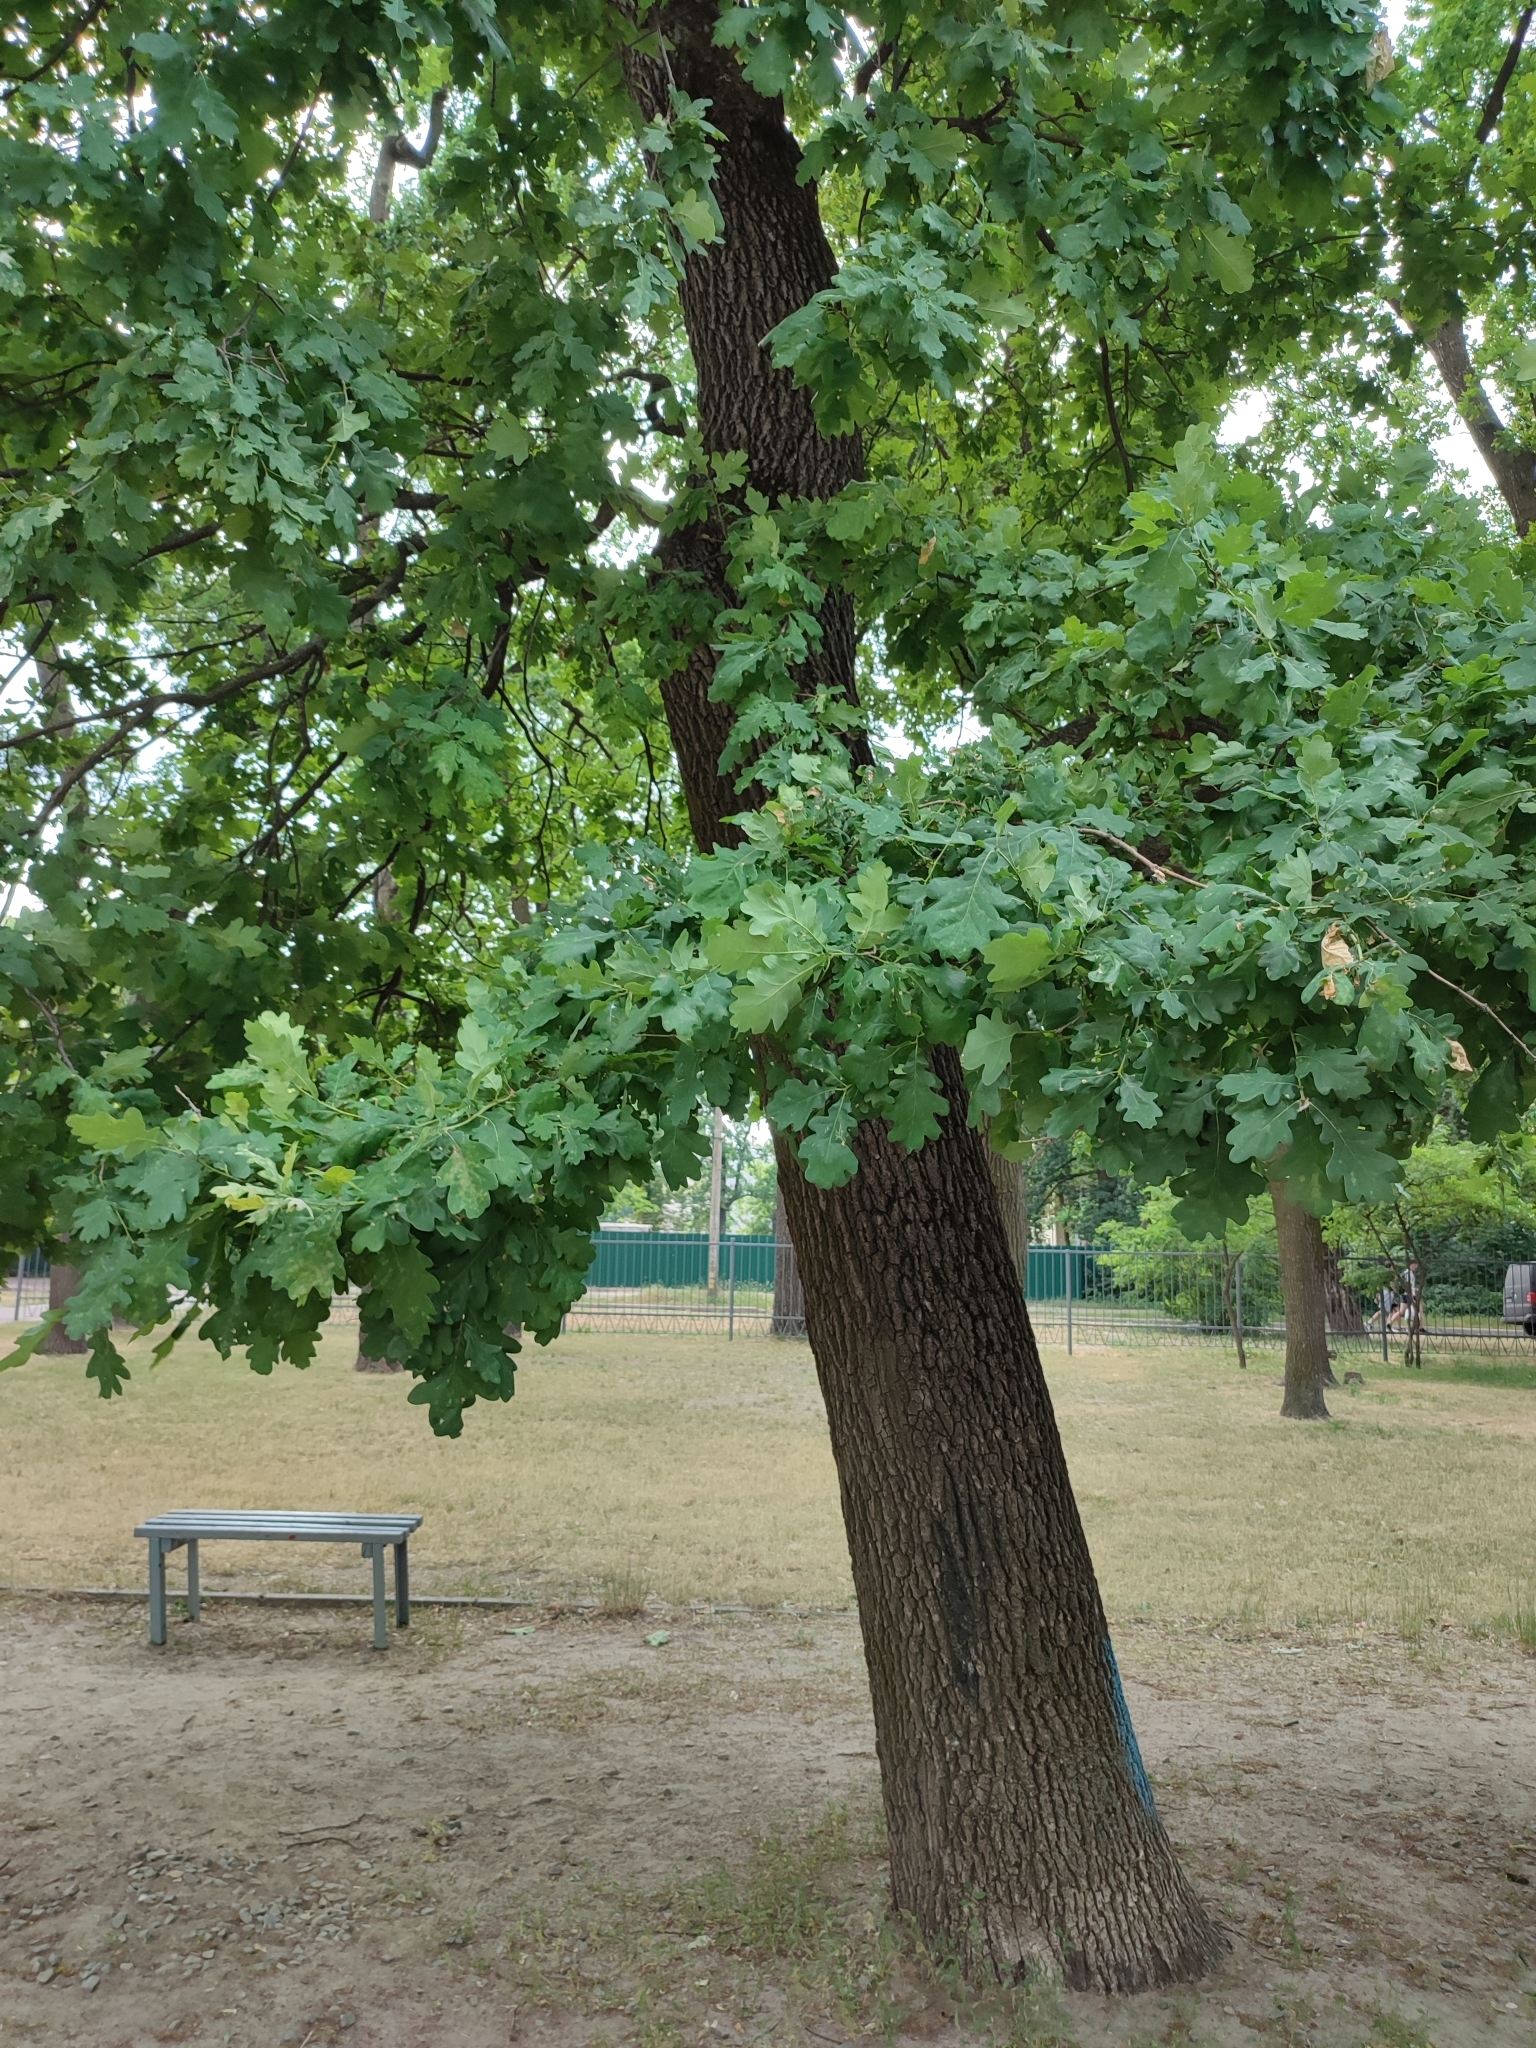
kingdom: Plantae
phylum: Tracheophyta
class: Magnoliopsida
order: Fagales
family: Fagaceae
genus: Quercus
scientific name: Quercus robur
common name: Pedunculate oak
